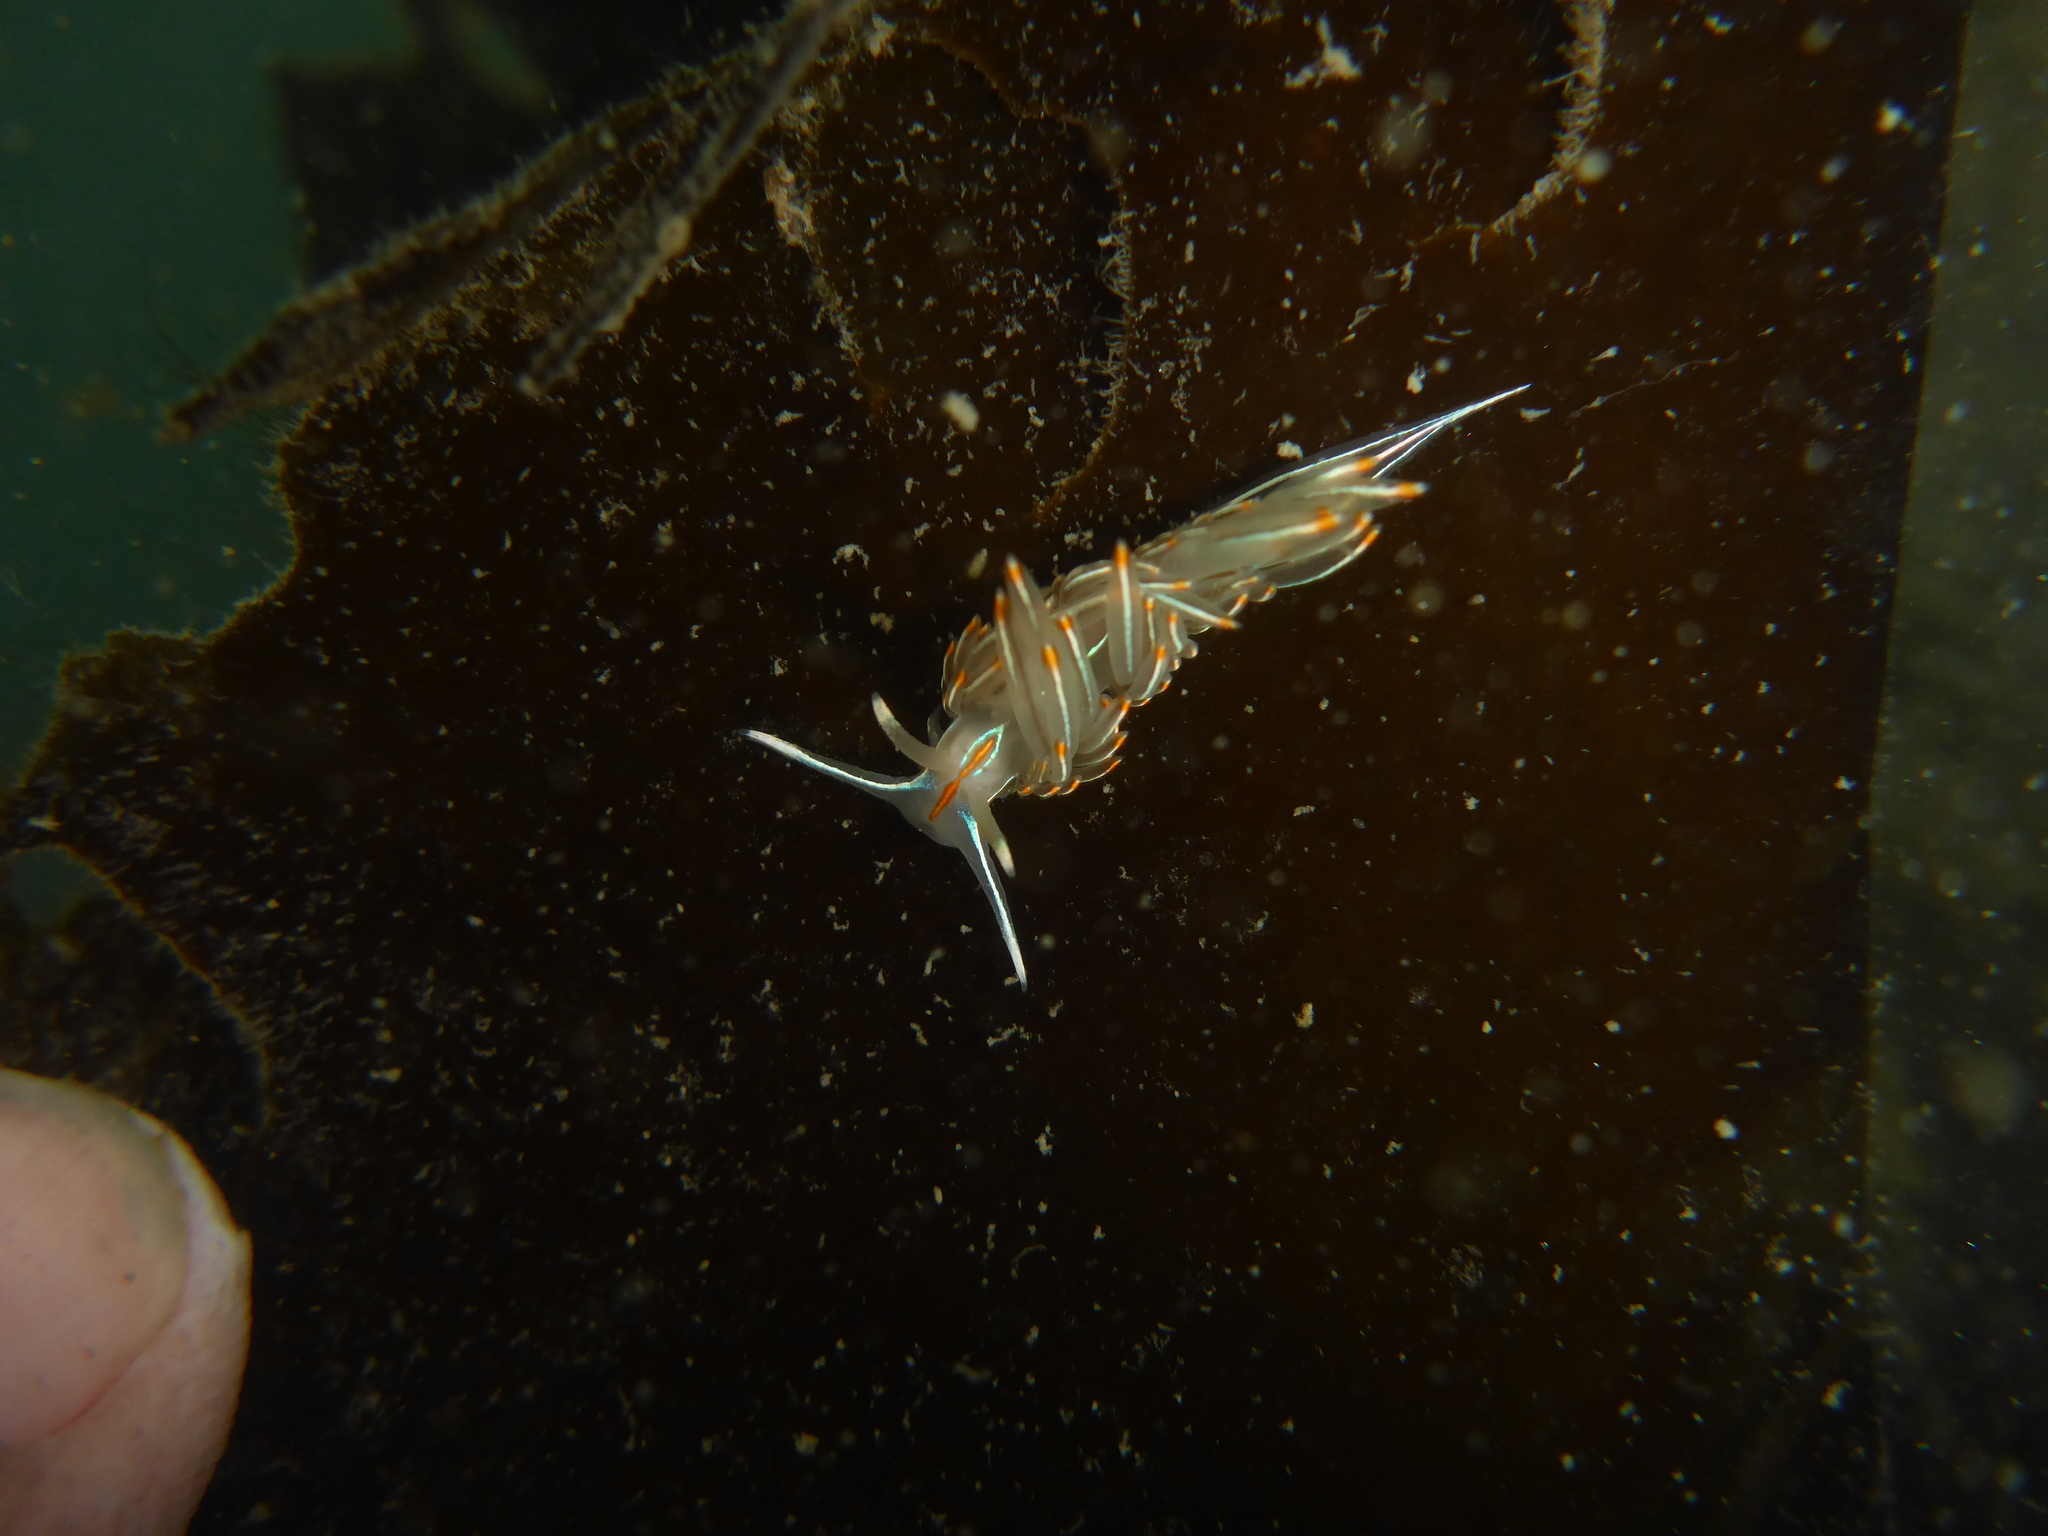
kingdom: Animalia
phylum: Mollusca
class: Gastropoda
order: Nudibranchia
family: Myrrhinidae
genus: Hermissenda
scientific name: Hermissenda crassicornis
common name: Hermissenda
